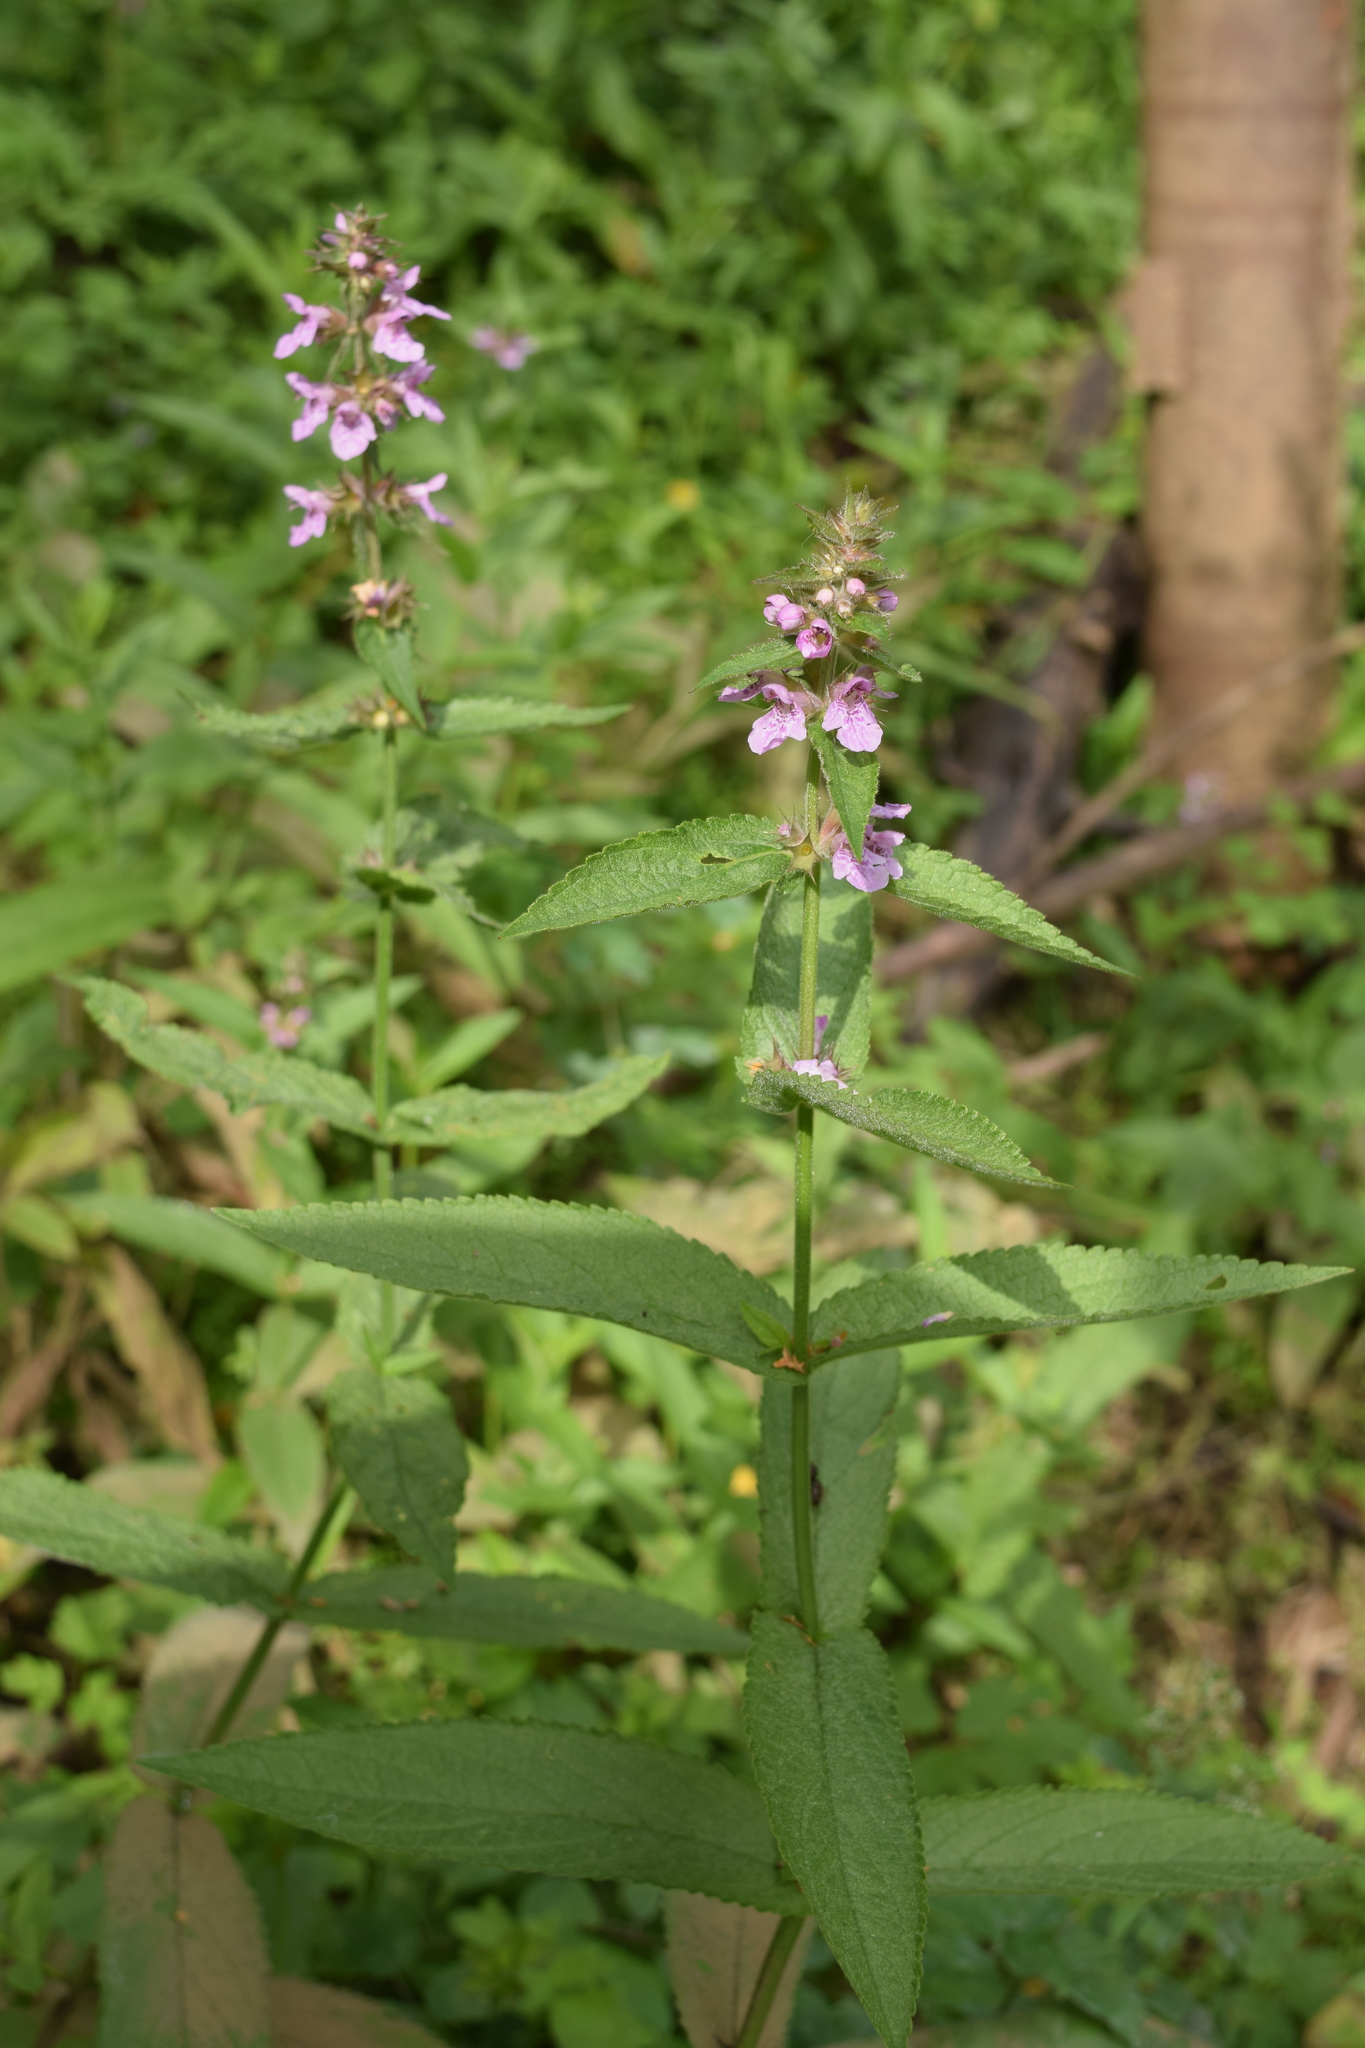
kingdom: Plantae
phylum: Tracheophyta
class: Magnoliopsida
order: Lamiales
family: Lamiaceae
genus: Stachys
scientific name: Stachys palustris
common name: Marsh woundwort
